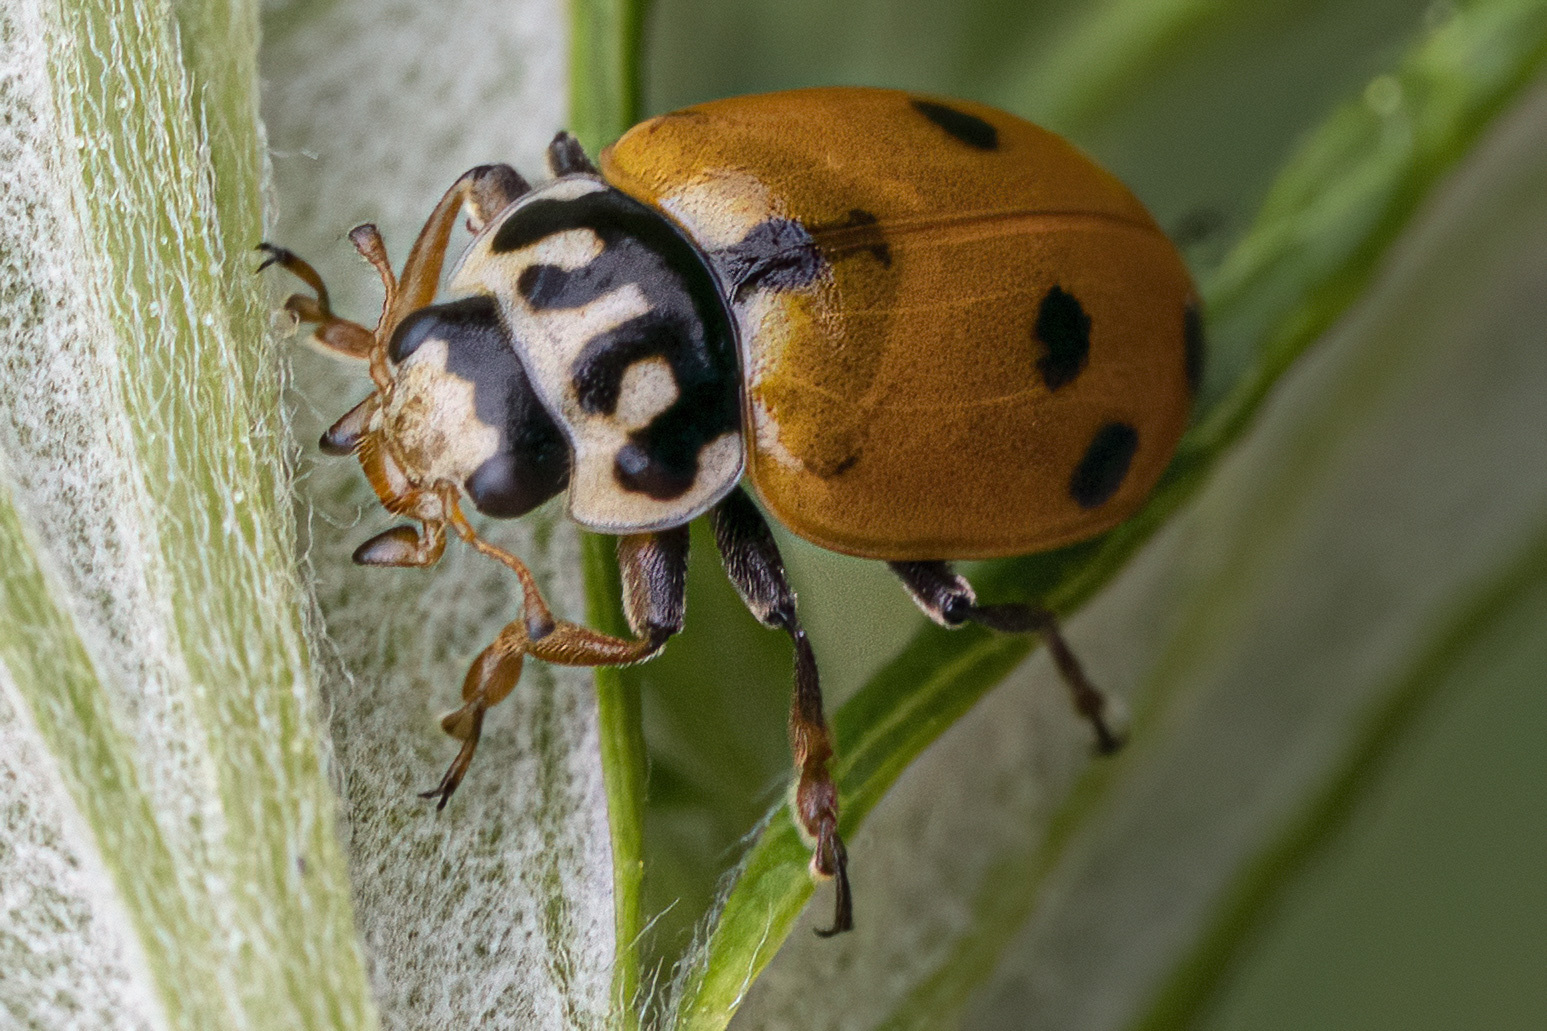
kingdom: Animalia
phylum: Arthropoda
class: Insecta
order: Coleoptera
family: Coccinellidae
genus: Hippodamia
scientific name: Hippodamia variegata
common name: Ladybird beetle
